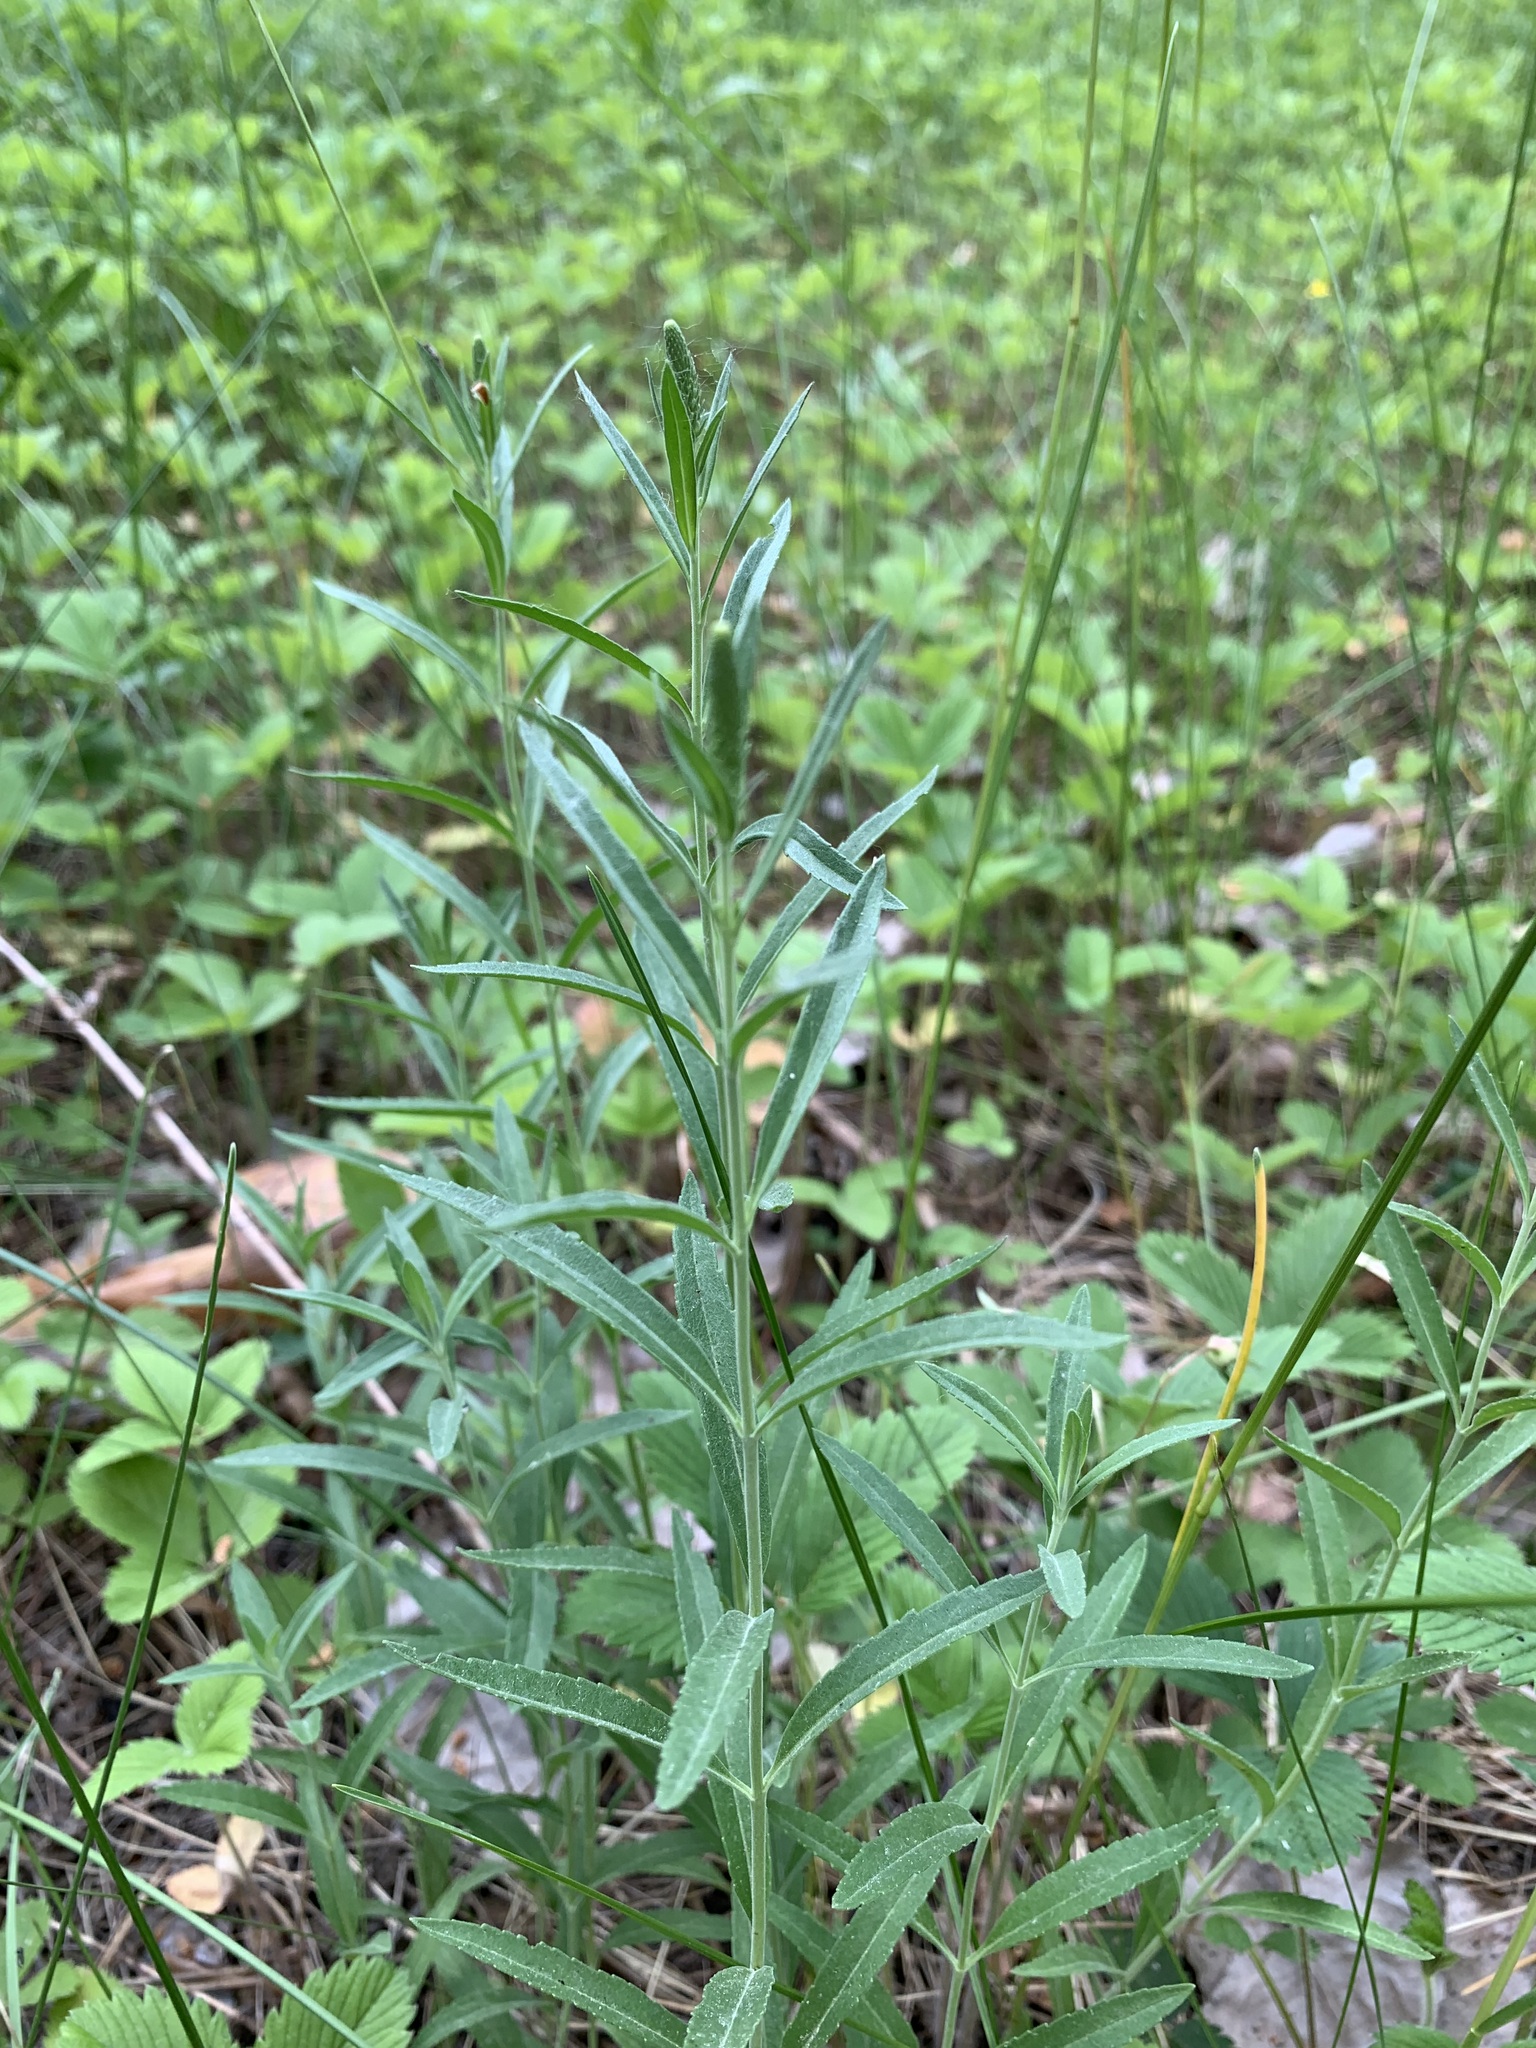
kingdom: Plantae
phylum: Tracheophyta
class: Magnoliopsida
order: Lamiales
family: Plantaginaceae
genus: Veronica
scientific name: Veronica spuria
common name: Bastard speedwell
